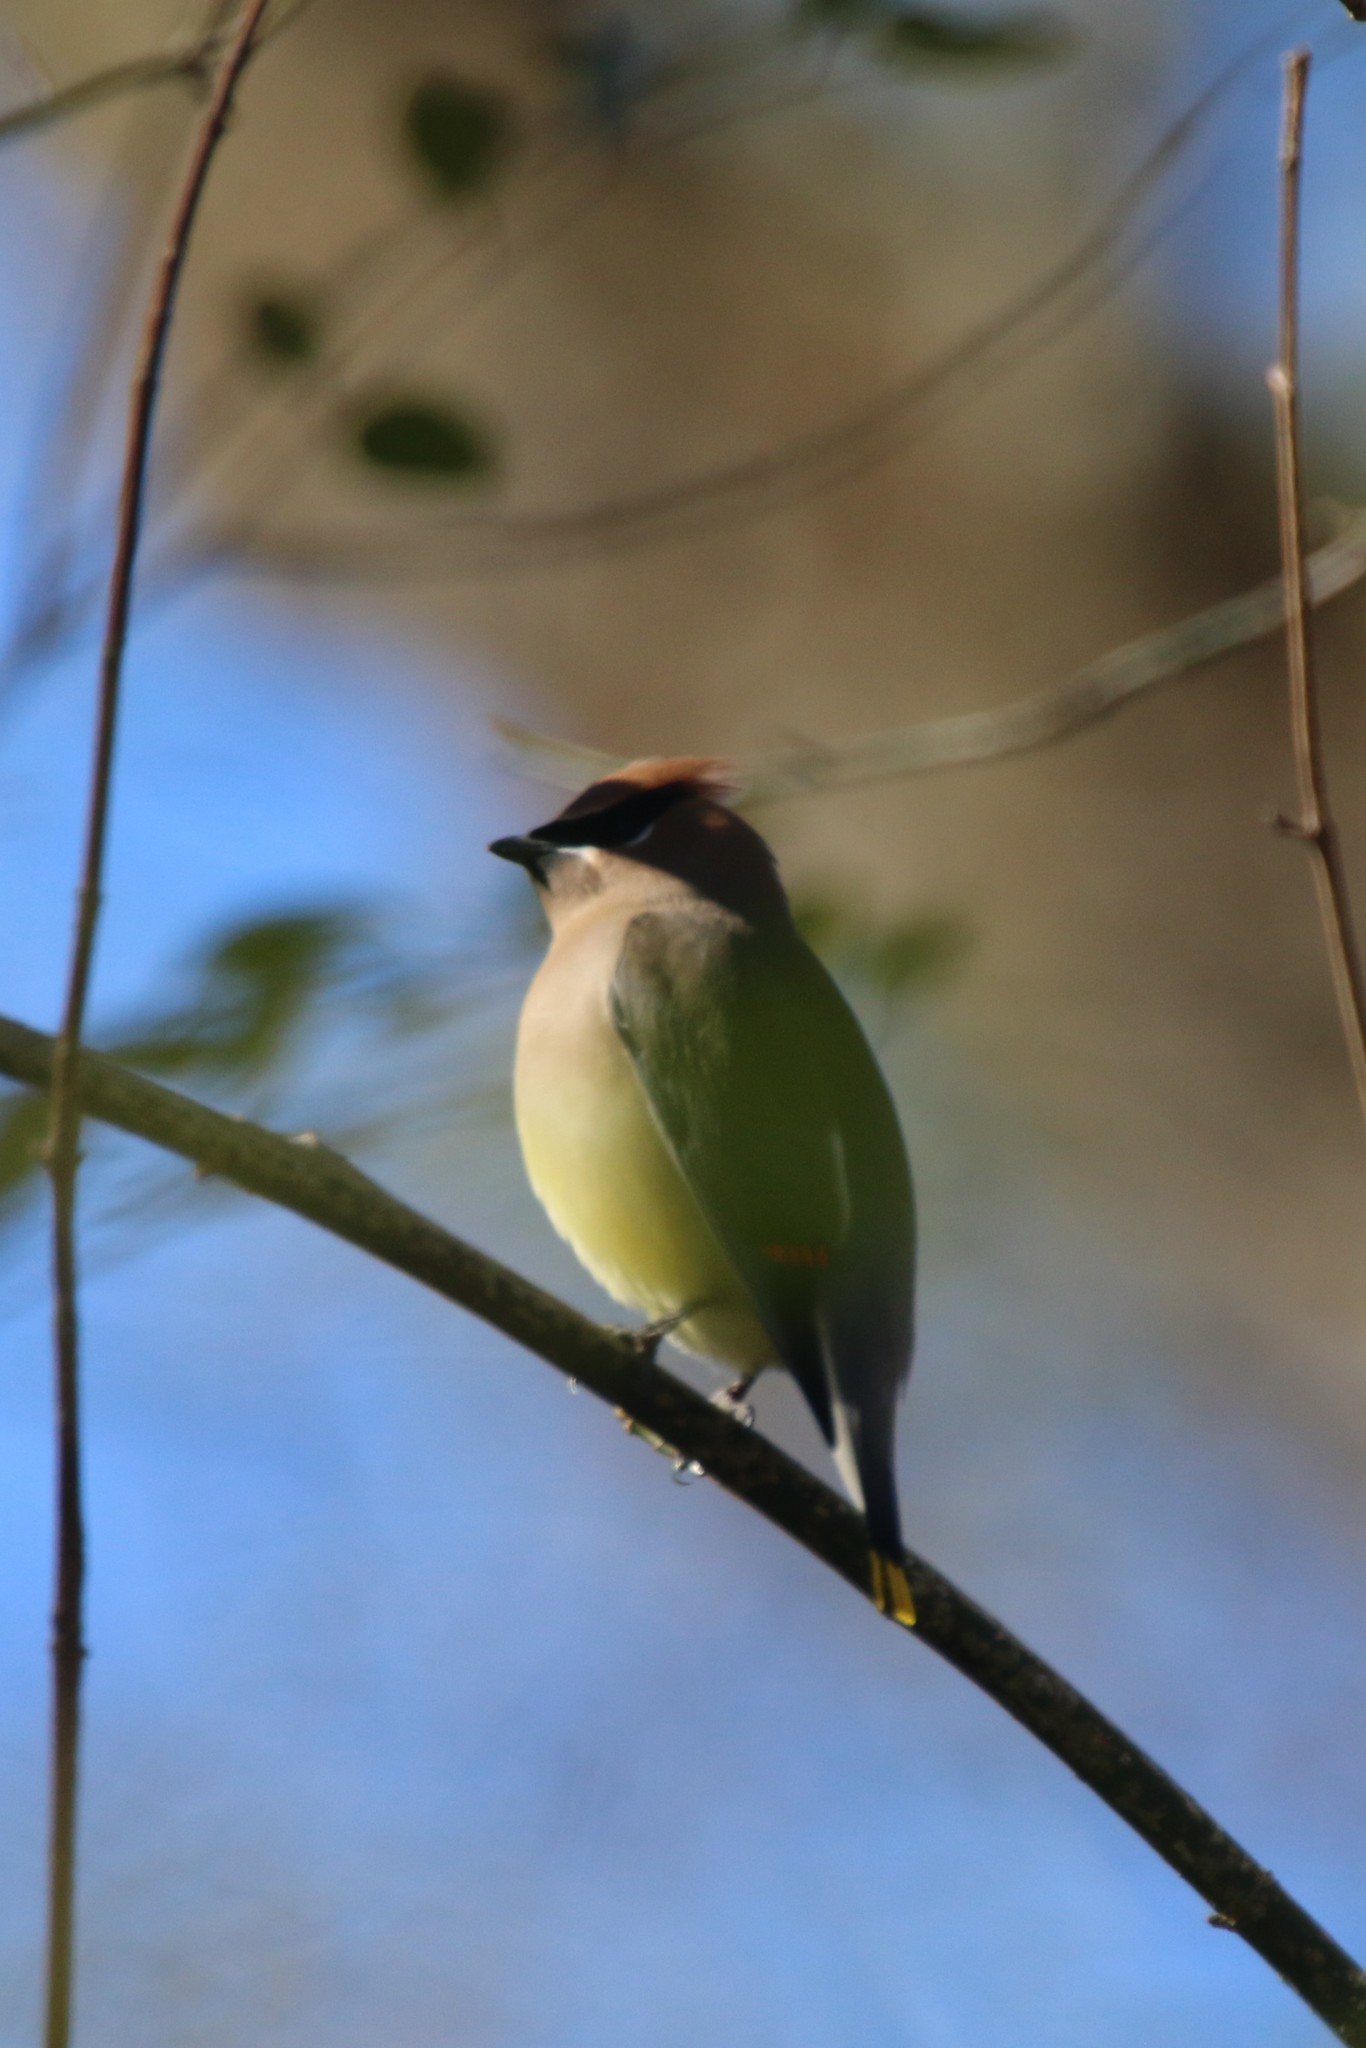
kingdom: Animalia
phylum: Chordata
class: Aves
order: Passeriformes
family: Bombycillidae
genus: Bombycilla
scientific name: Bombycilla cedrorum
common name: Cedar waxwing
